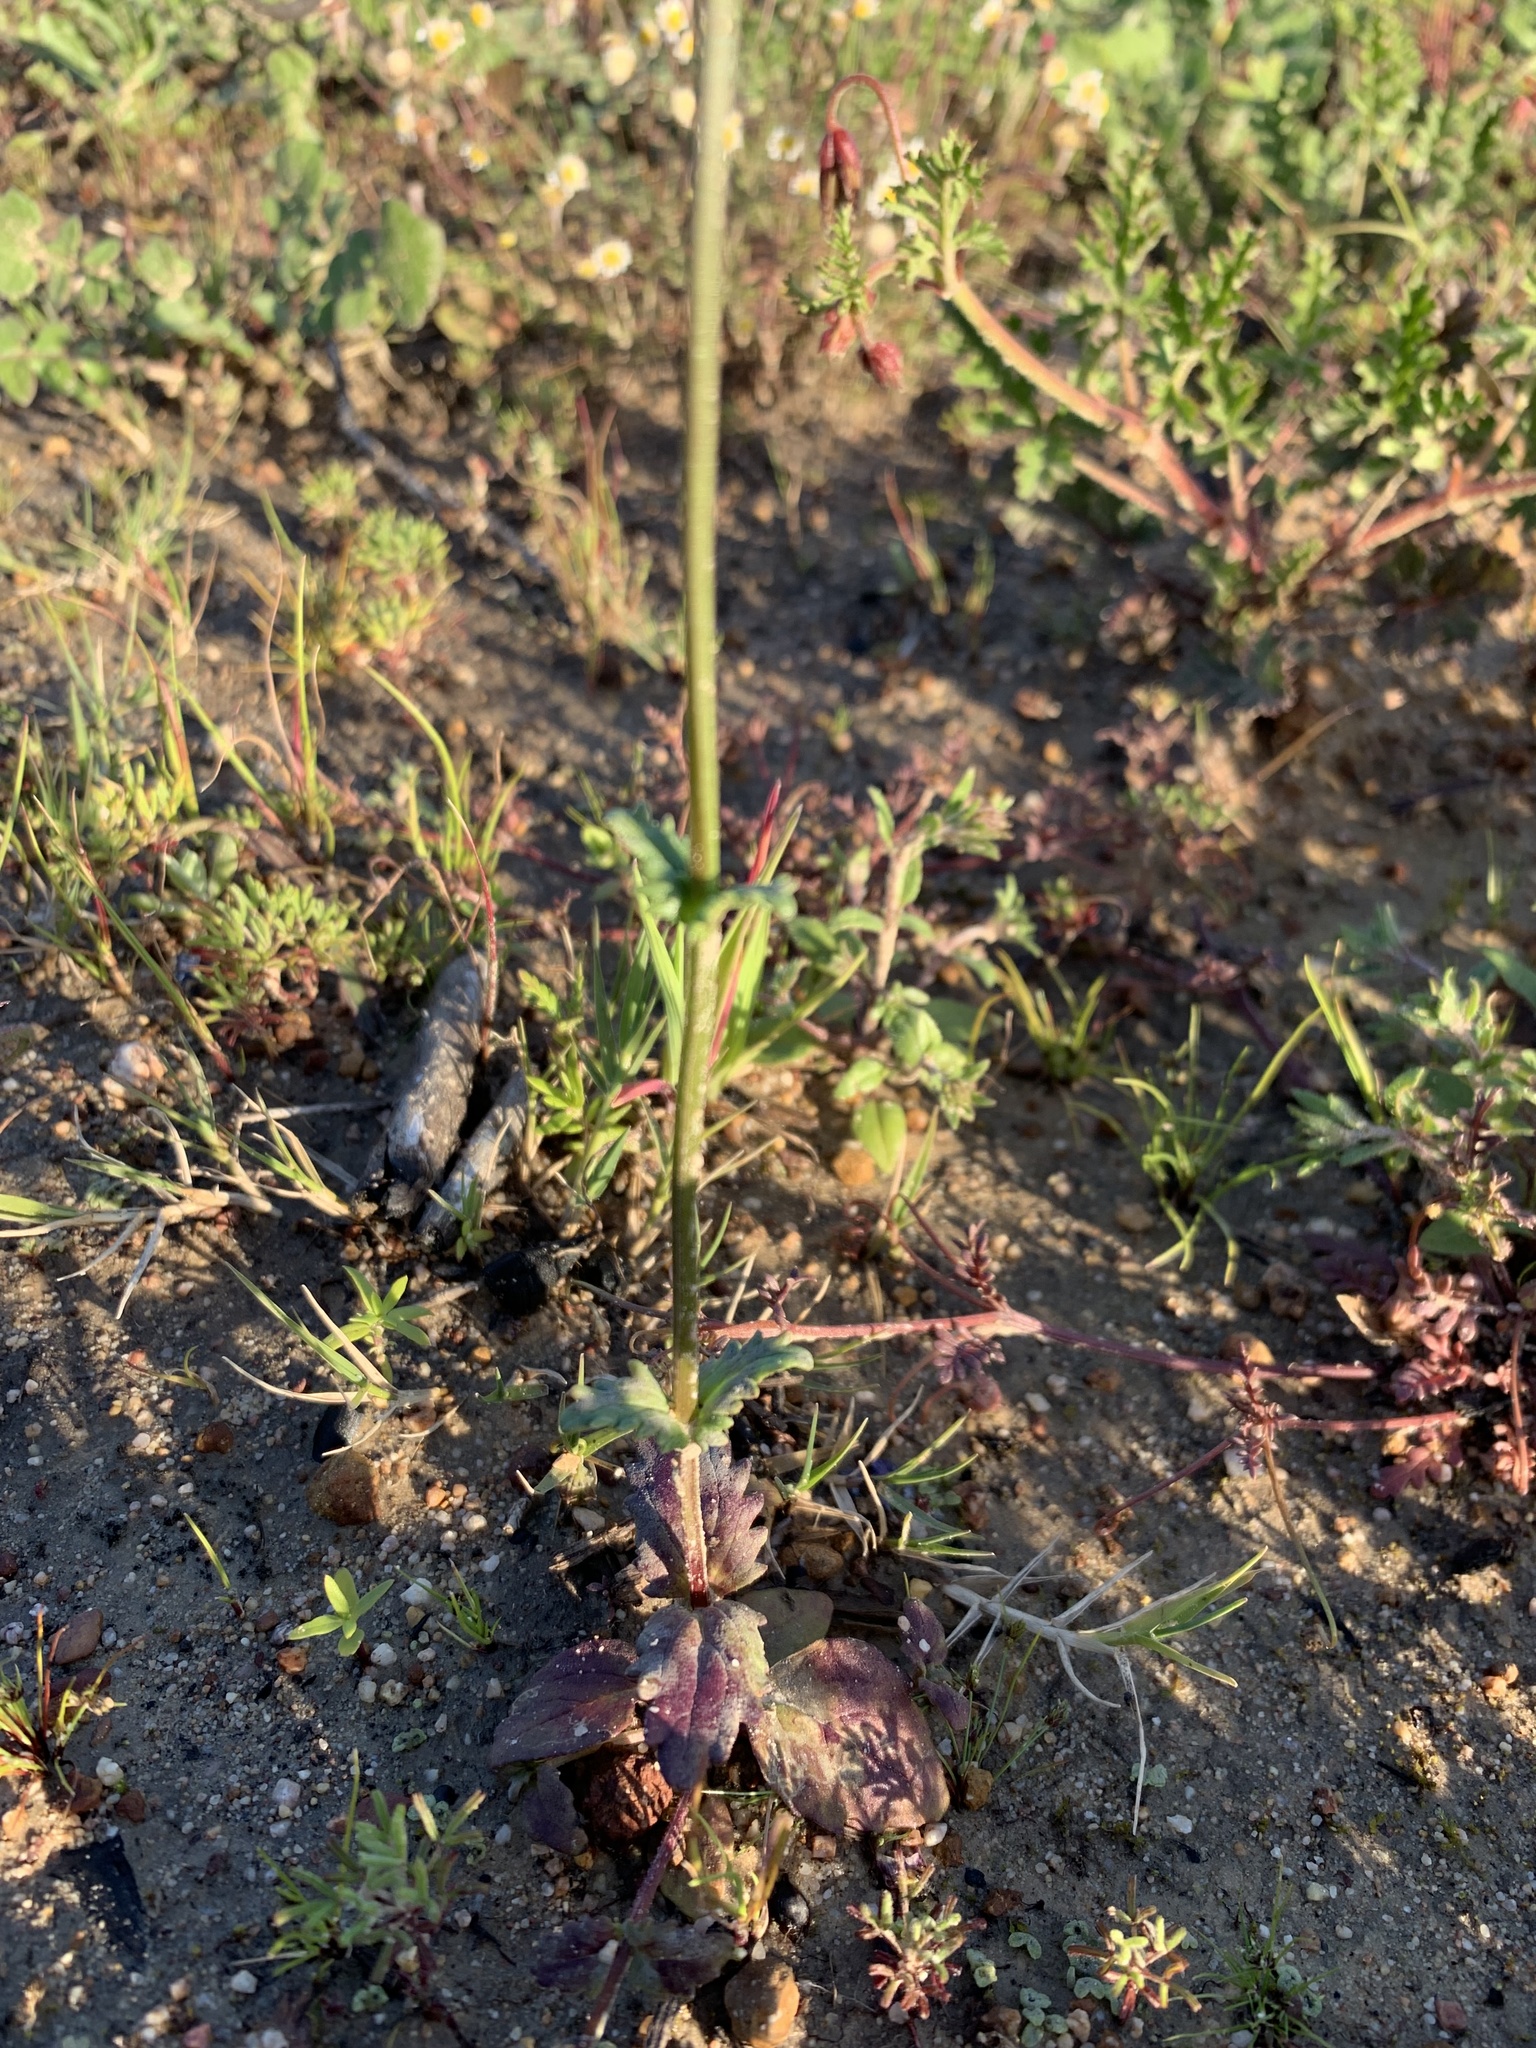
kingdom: Plantae
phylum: Tracheophyta
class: Magnoliopsida
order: Lamiales
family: Scrophulariaceae
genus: Nemesia
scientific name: Nemesia barbata
